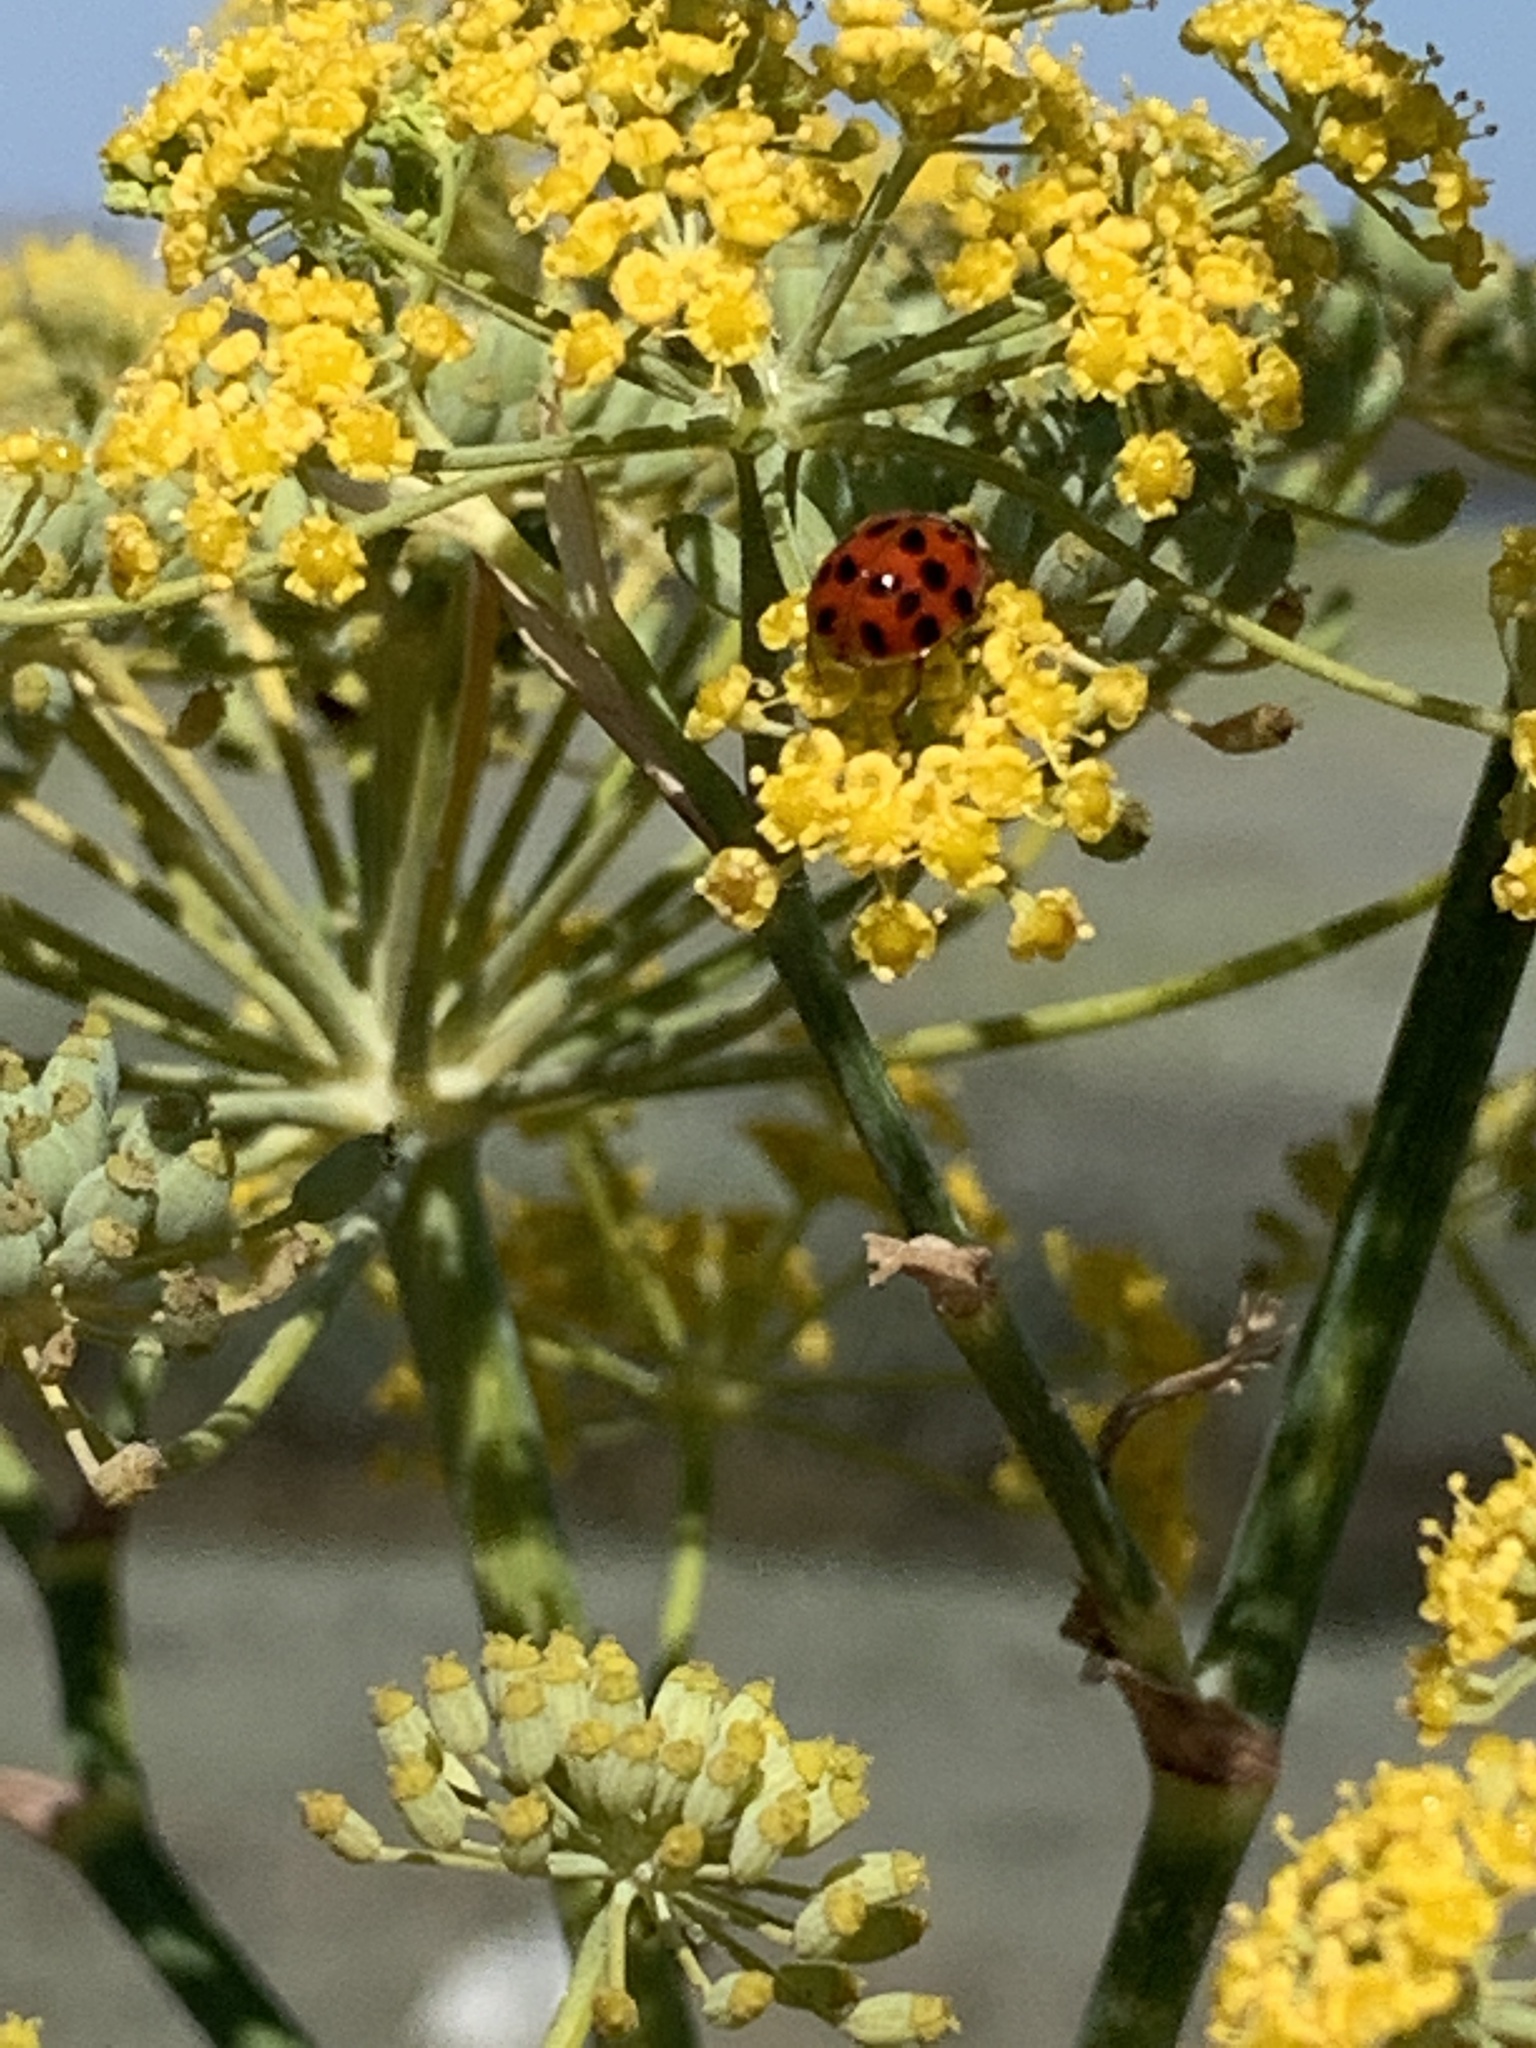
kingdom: Animalia
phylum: Arthropoda
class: Insecta
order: Coleoptera
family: Coccinellidae
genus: Harmonia
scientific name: Harmonia axyridis
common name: Harlequin ladybird
